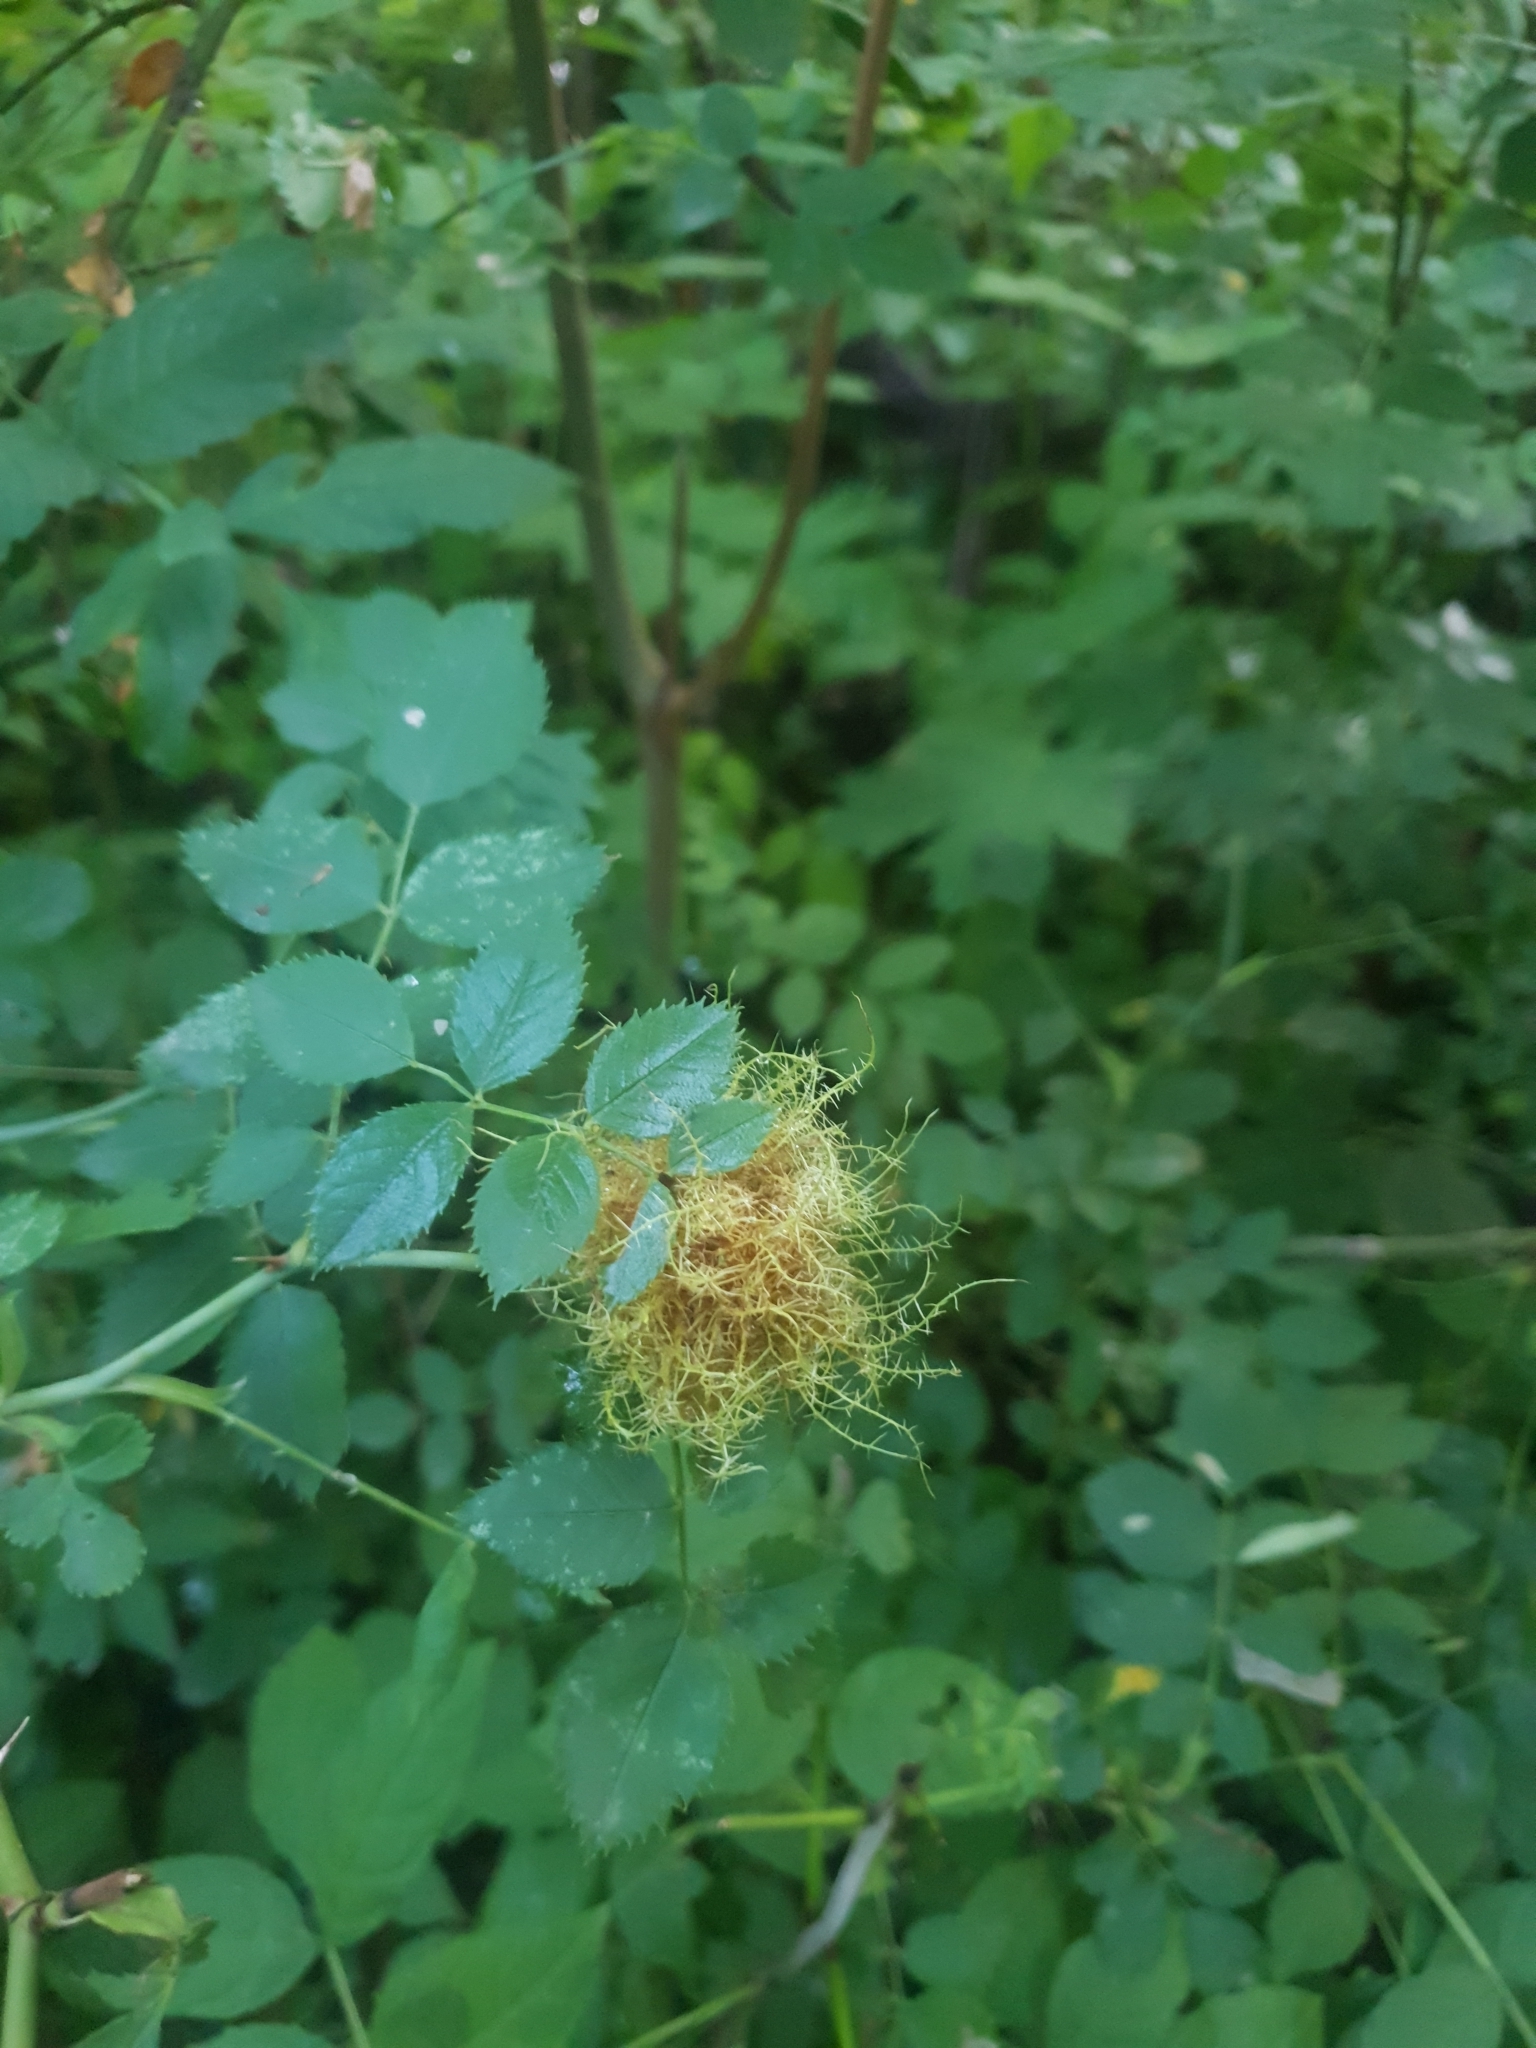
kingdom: Animalia
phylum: Arthropoda
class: Insecta
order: Hymenoptera
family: Cynipidae
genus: Diplolepis
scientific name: Diplolepis rosae
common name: Bedeguar gall
